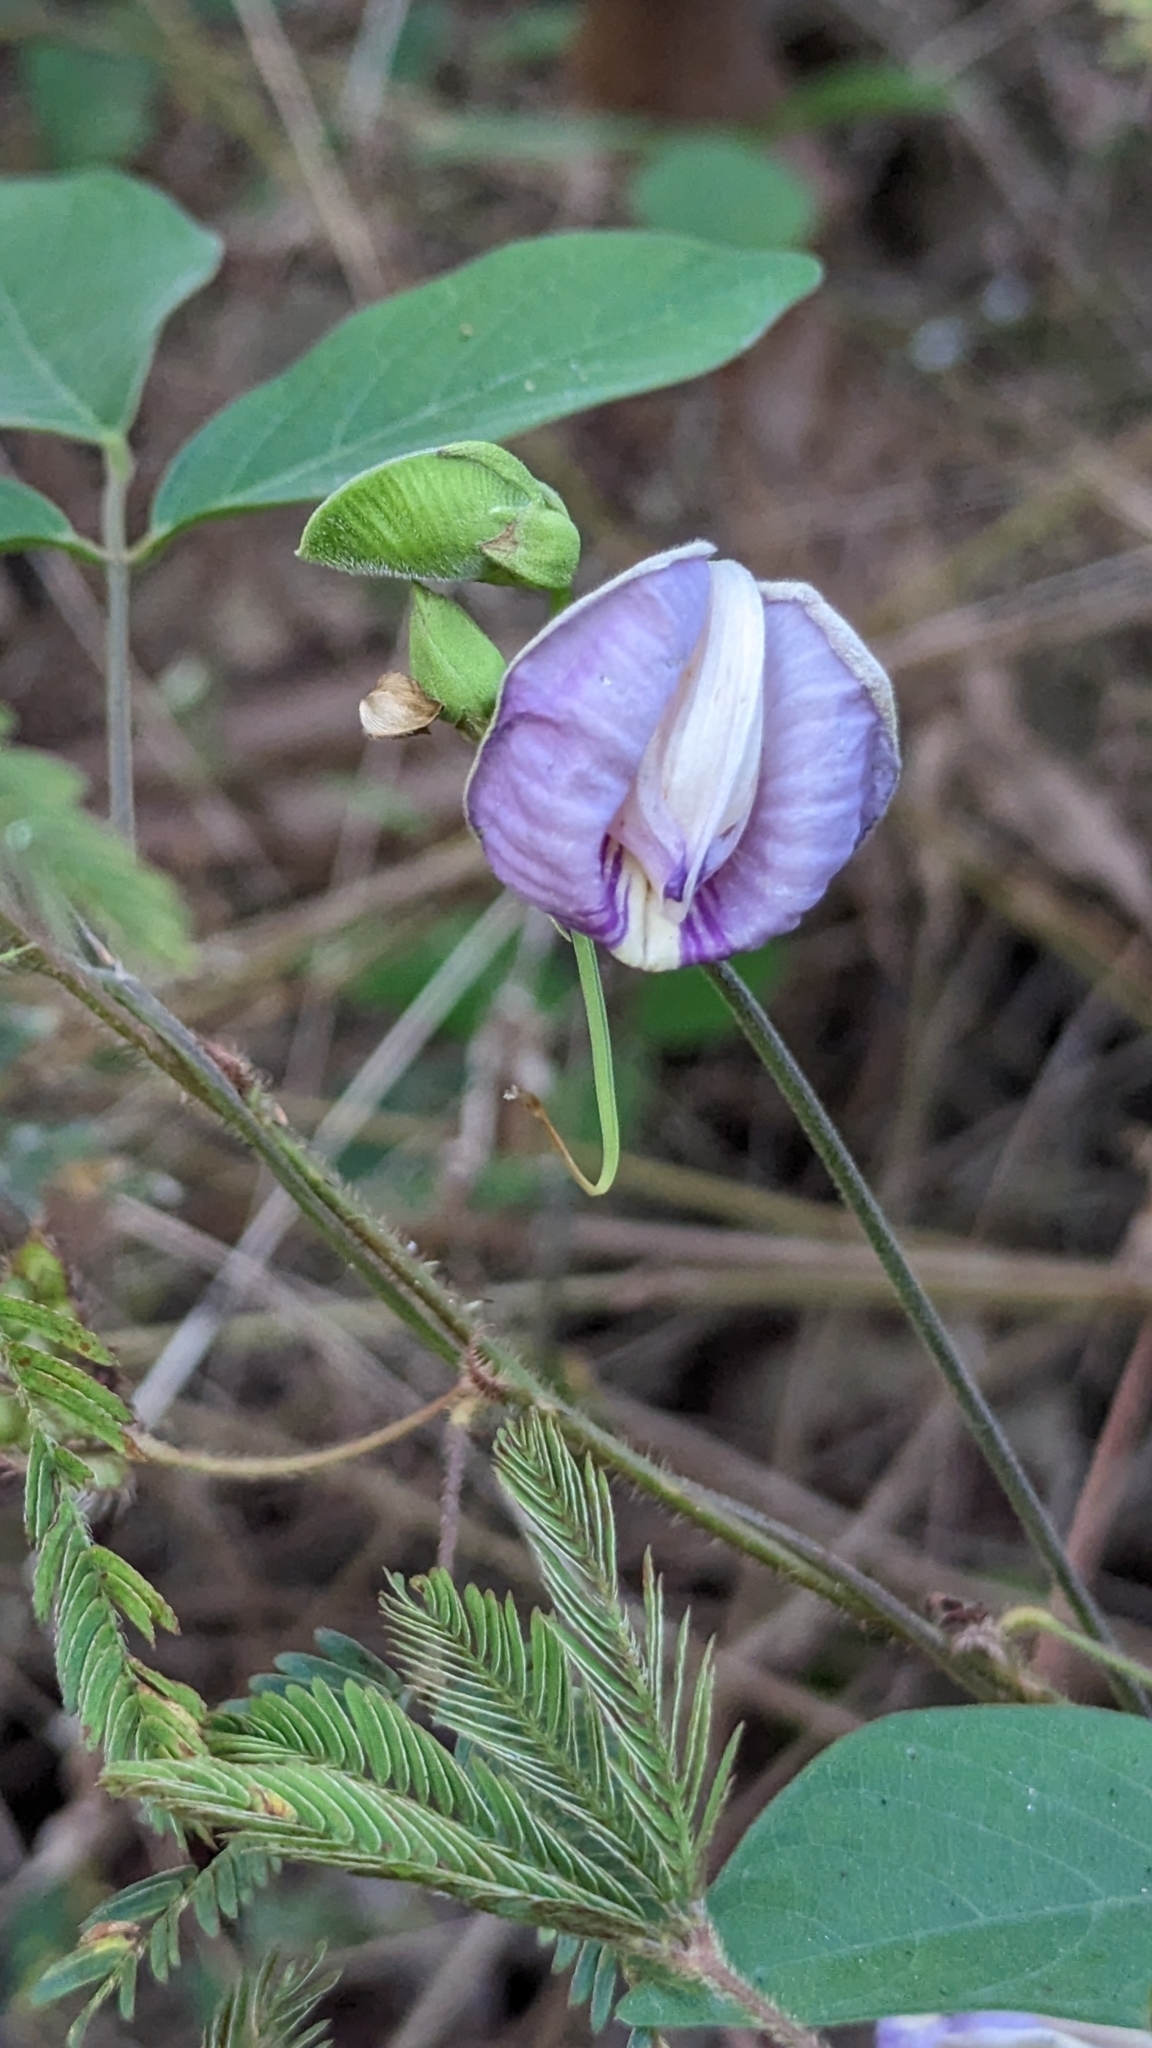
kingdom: Plantae
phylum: Tracheophyta
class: Magnoliopsida
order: Fabales
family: Fabaceae
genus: Centrosema
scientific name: Centrosema pubescens
